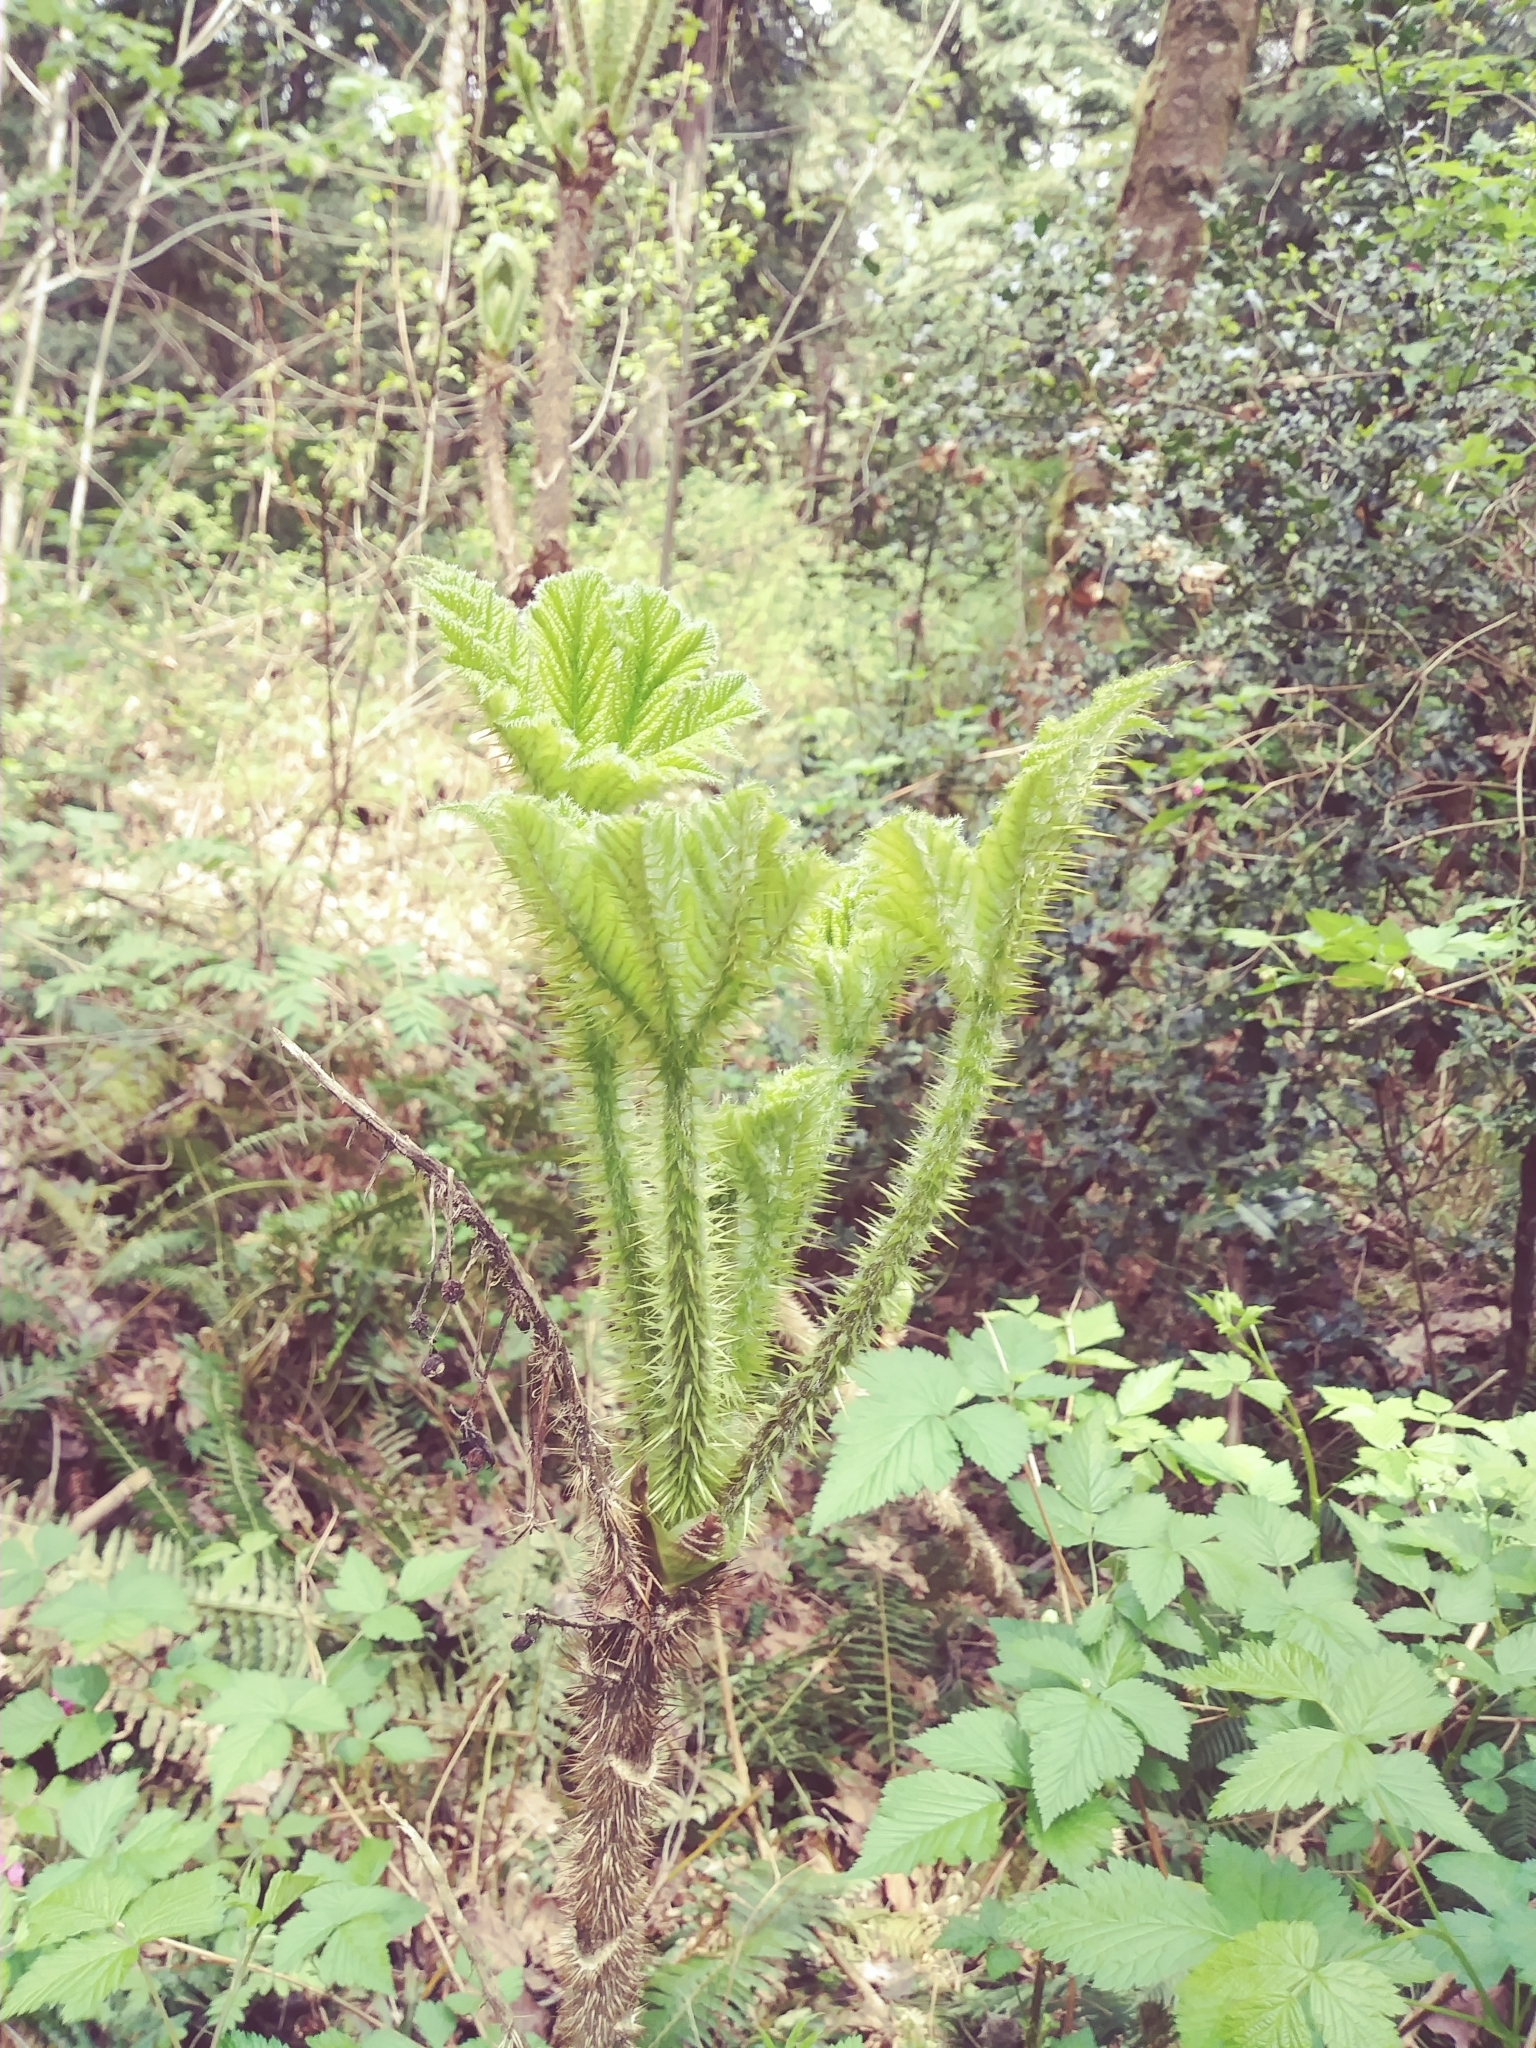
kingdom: Plantae
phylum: Tracheophyta
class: Magnoliopsida
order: Apiales
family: Araliaceae
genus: Oplopanax
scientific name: Oplopanax horridus
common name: Devil's walking-stick
